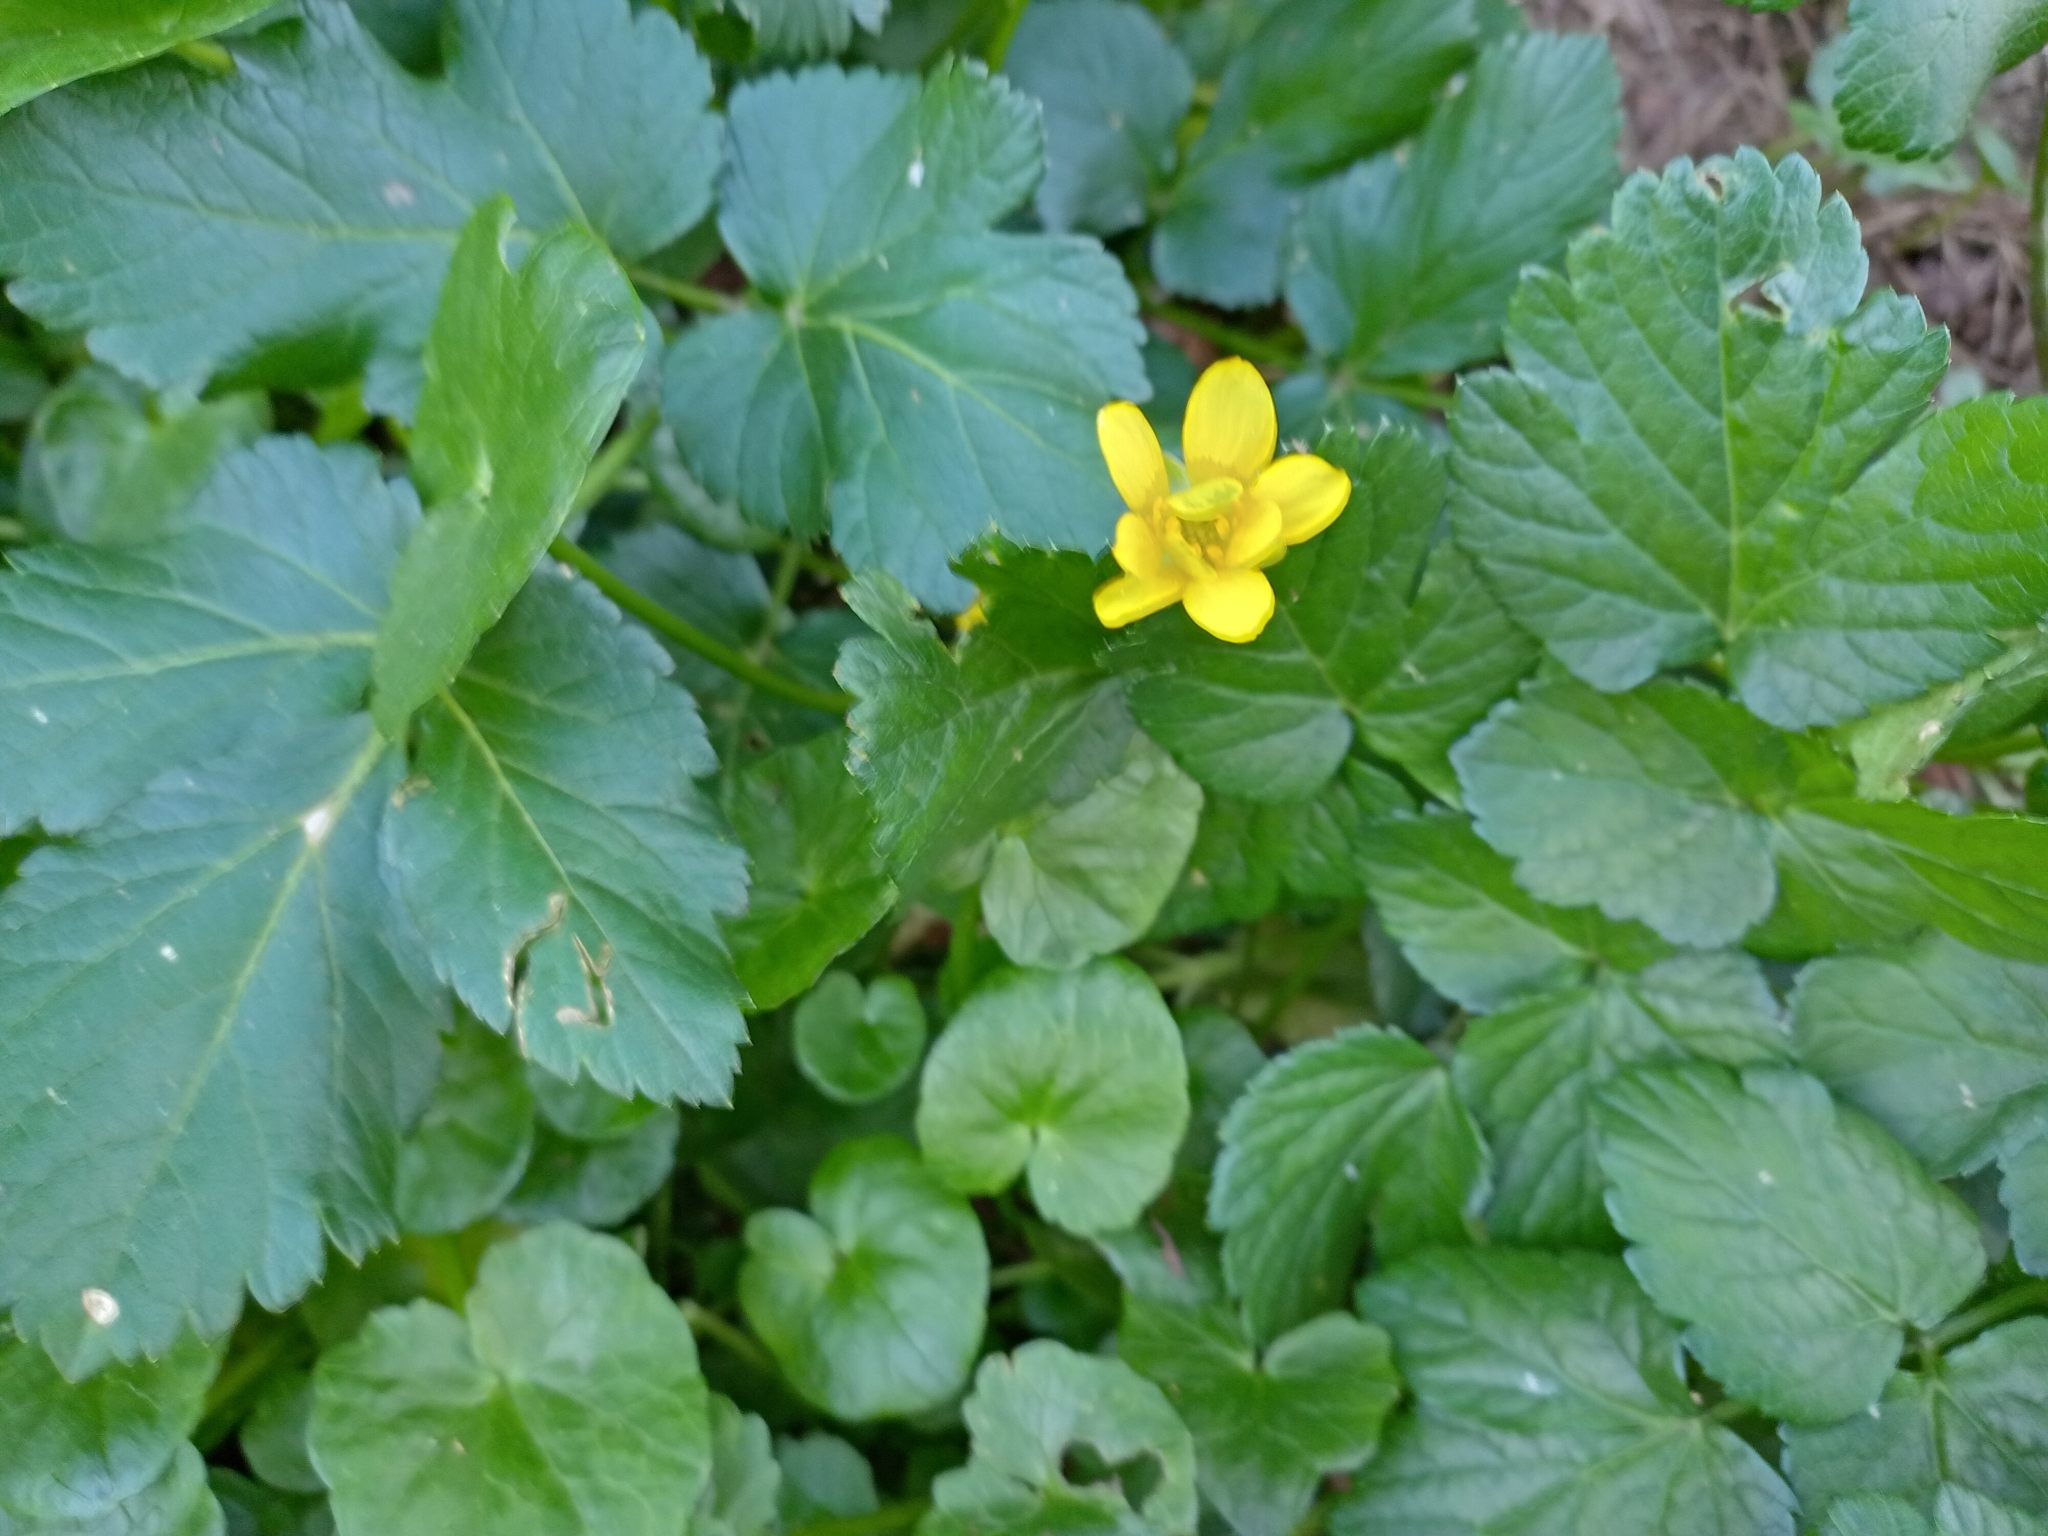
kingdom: Plantae
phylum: Tracheophyta
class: Magnoliopsida
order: Ranunculales
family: Ranunculaceae
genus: Ficaria
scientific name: Ficaria verna
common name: Lesser celandine
